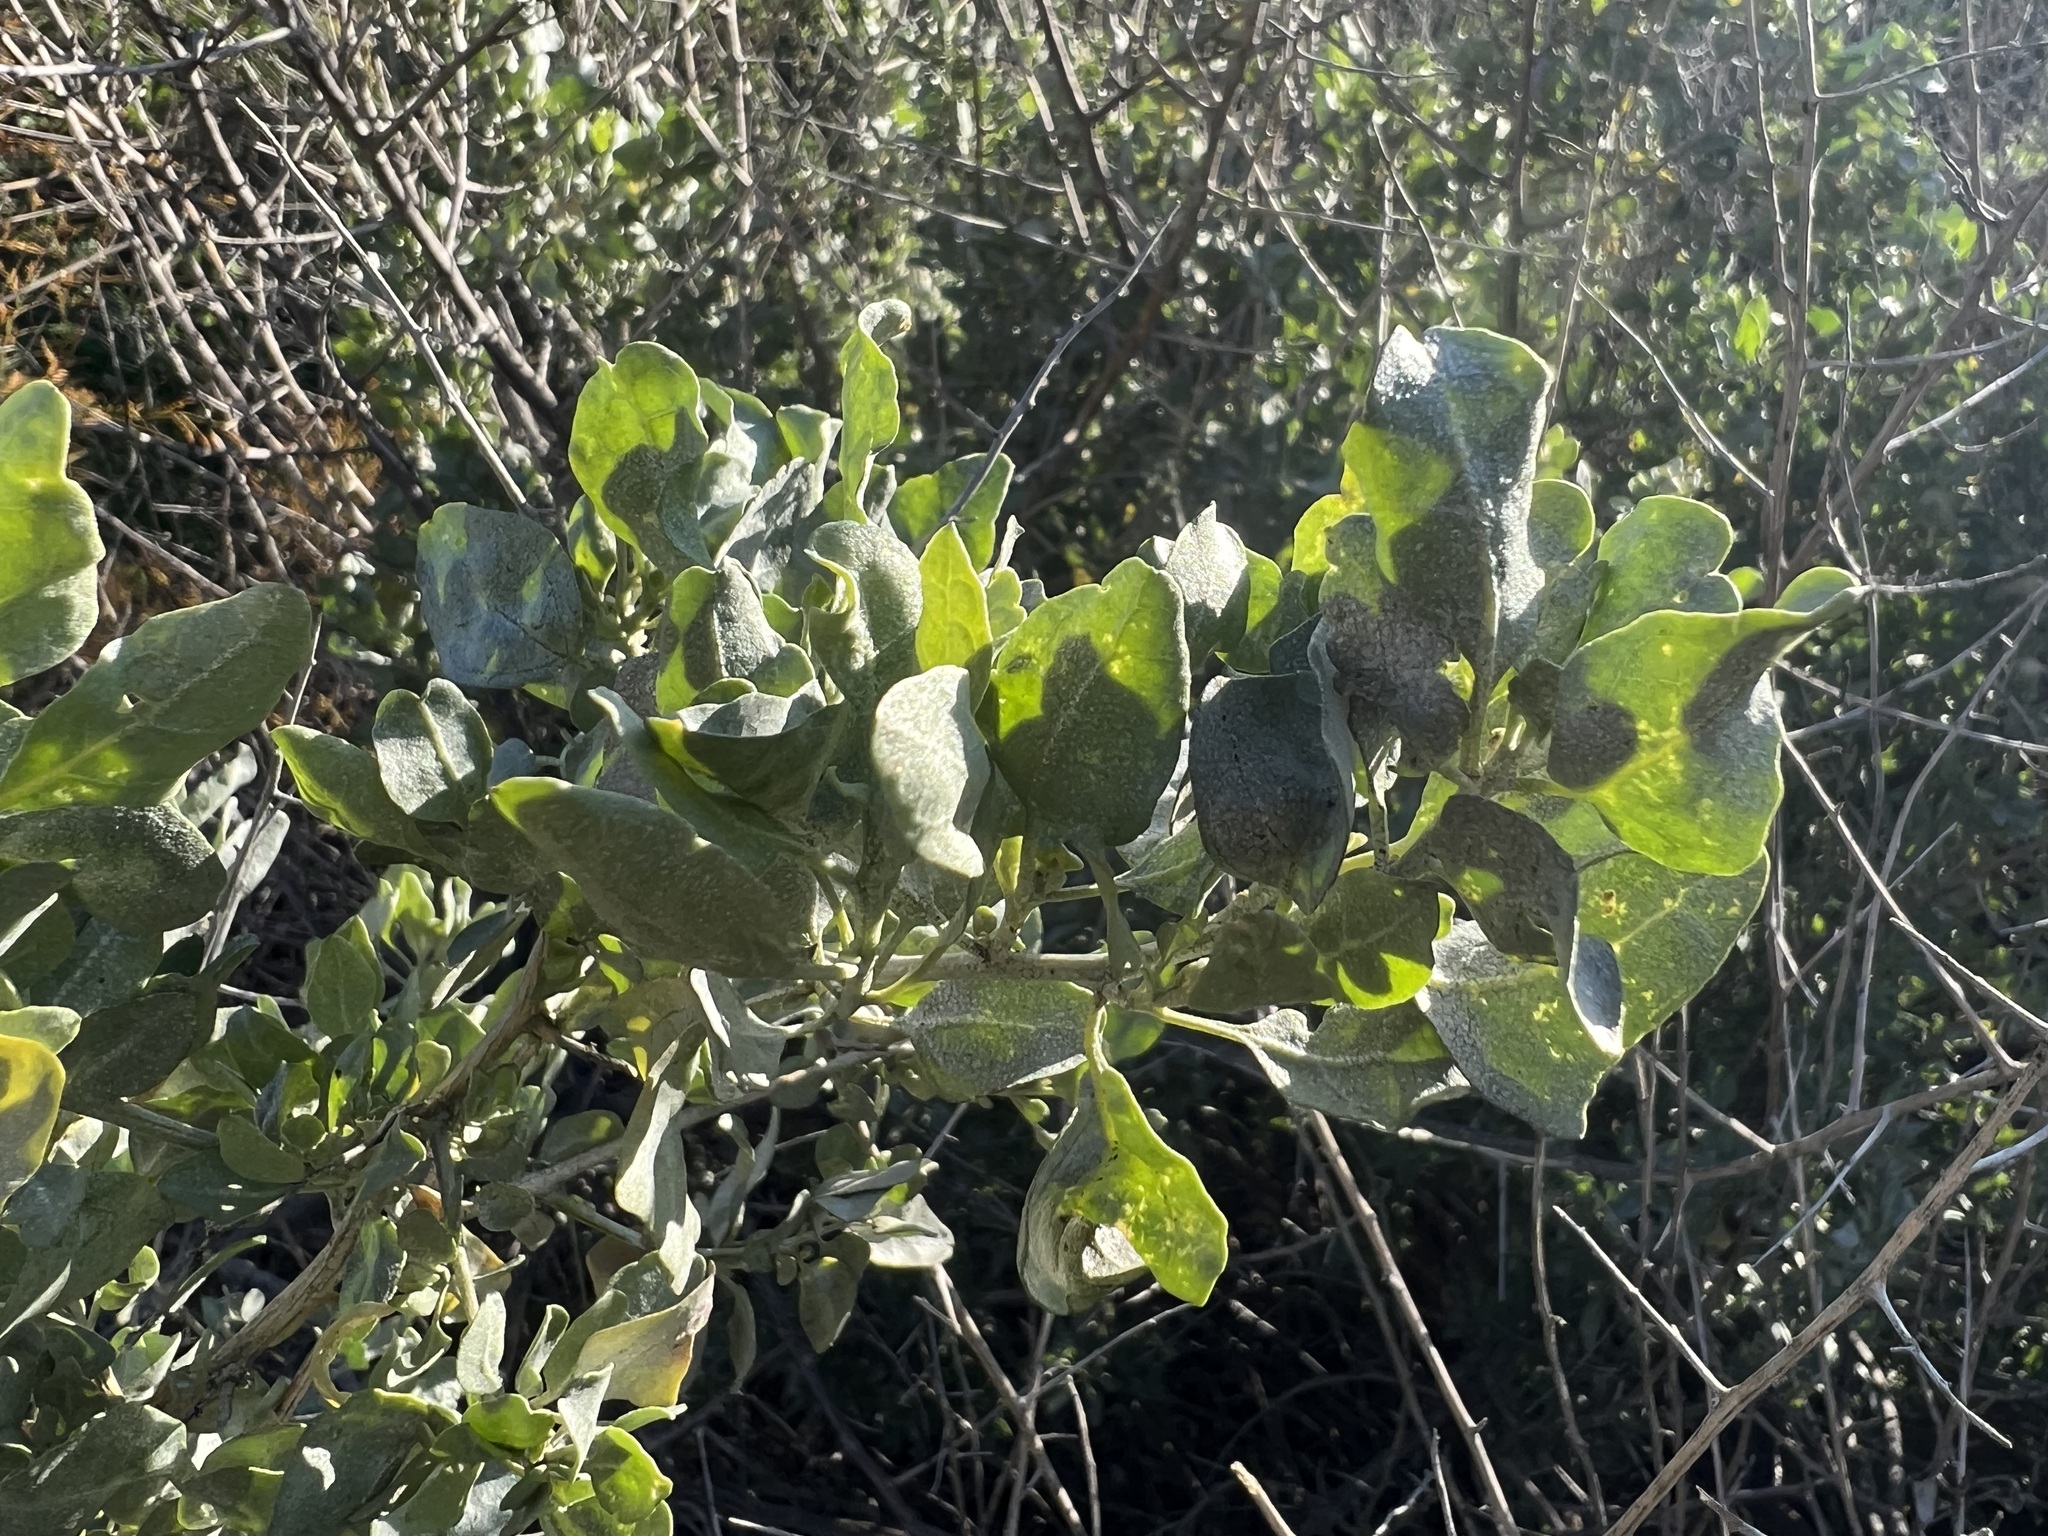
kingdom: Plantae
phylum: Tracheophyta
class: Magnoliopsida
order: Caryophyllales
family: Amaranthaceae
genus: Atriplex
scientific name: Atriplex lentiformis
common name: Big saltbush
